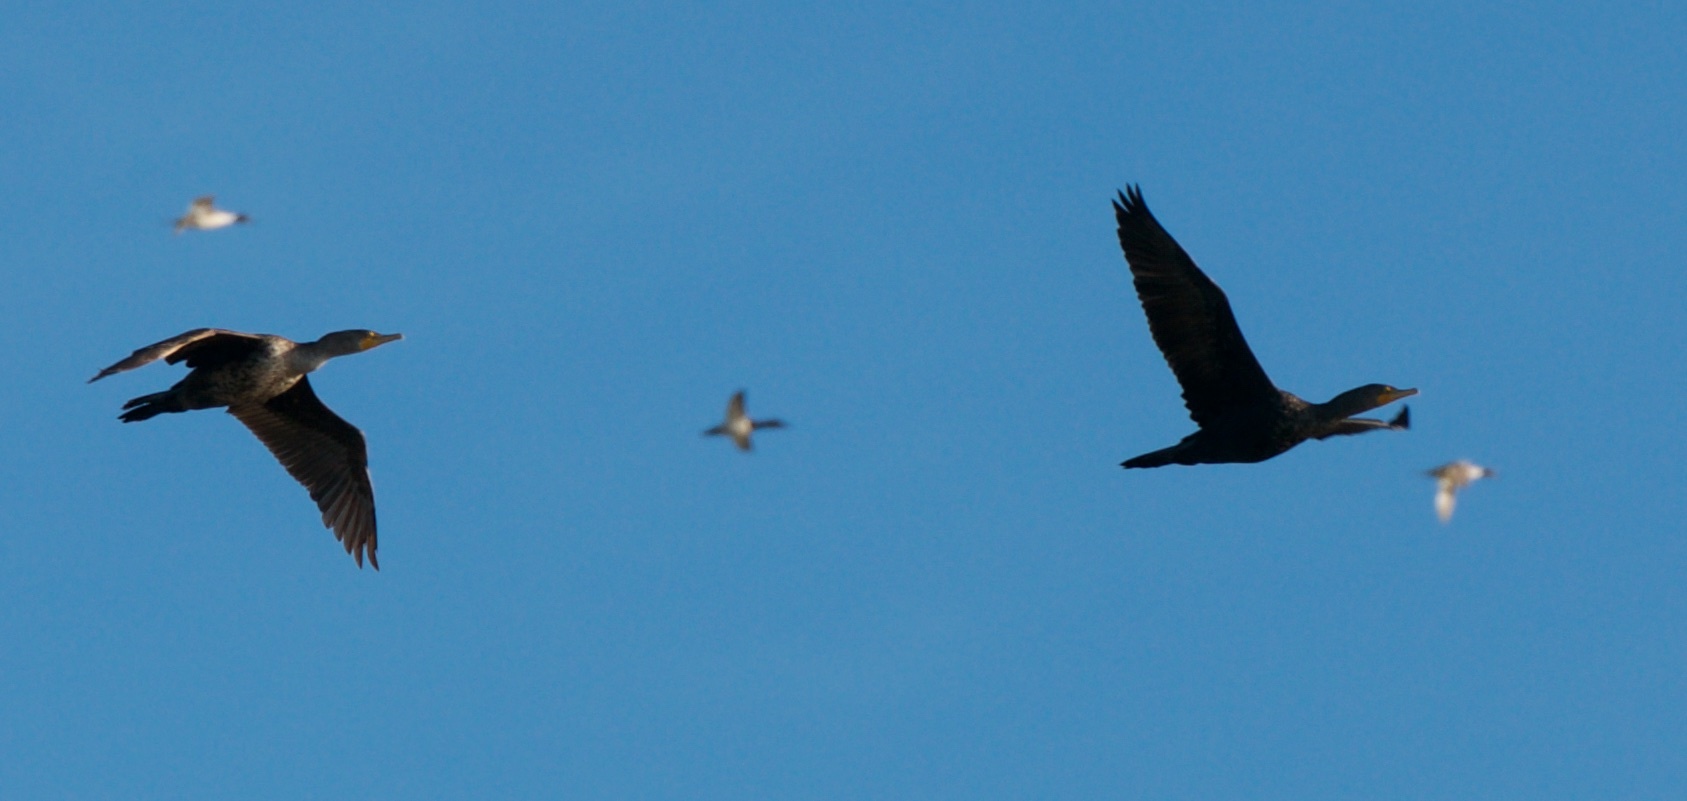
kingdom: Animalia
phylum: Chordata
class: Aves
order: Suliformes
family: Phalacrocoracidae
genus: Phalacrocorax
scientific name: Phalacrocorax auritus
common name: Double-crested cormorant
